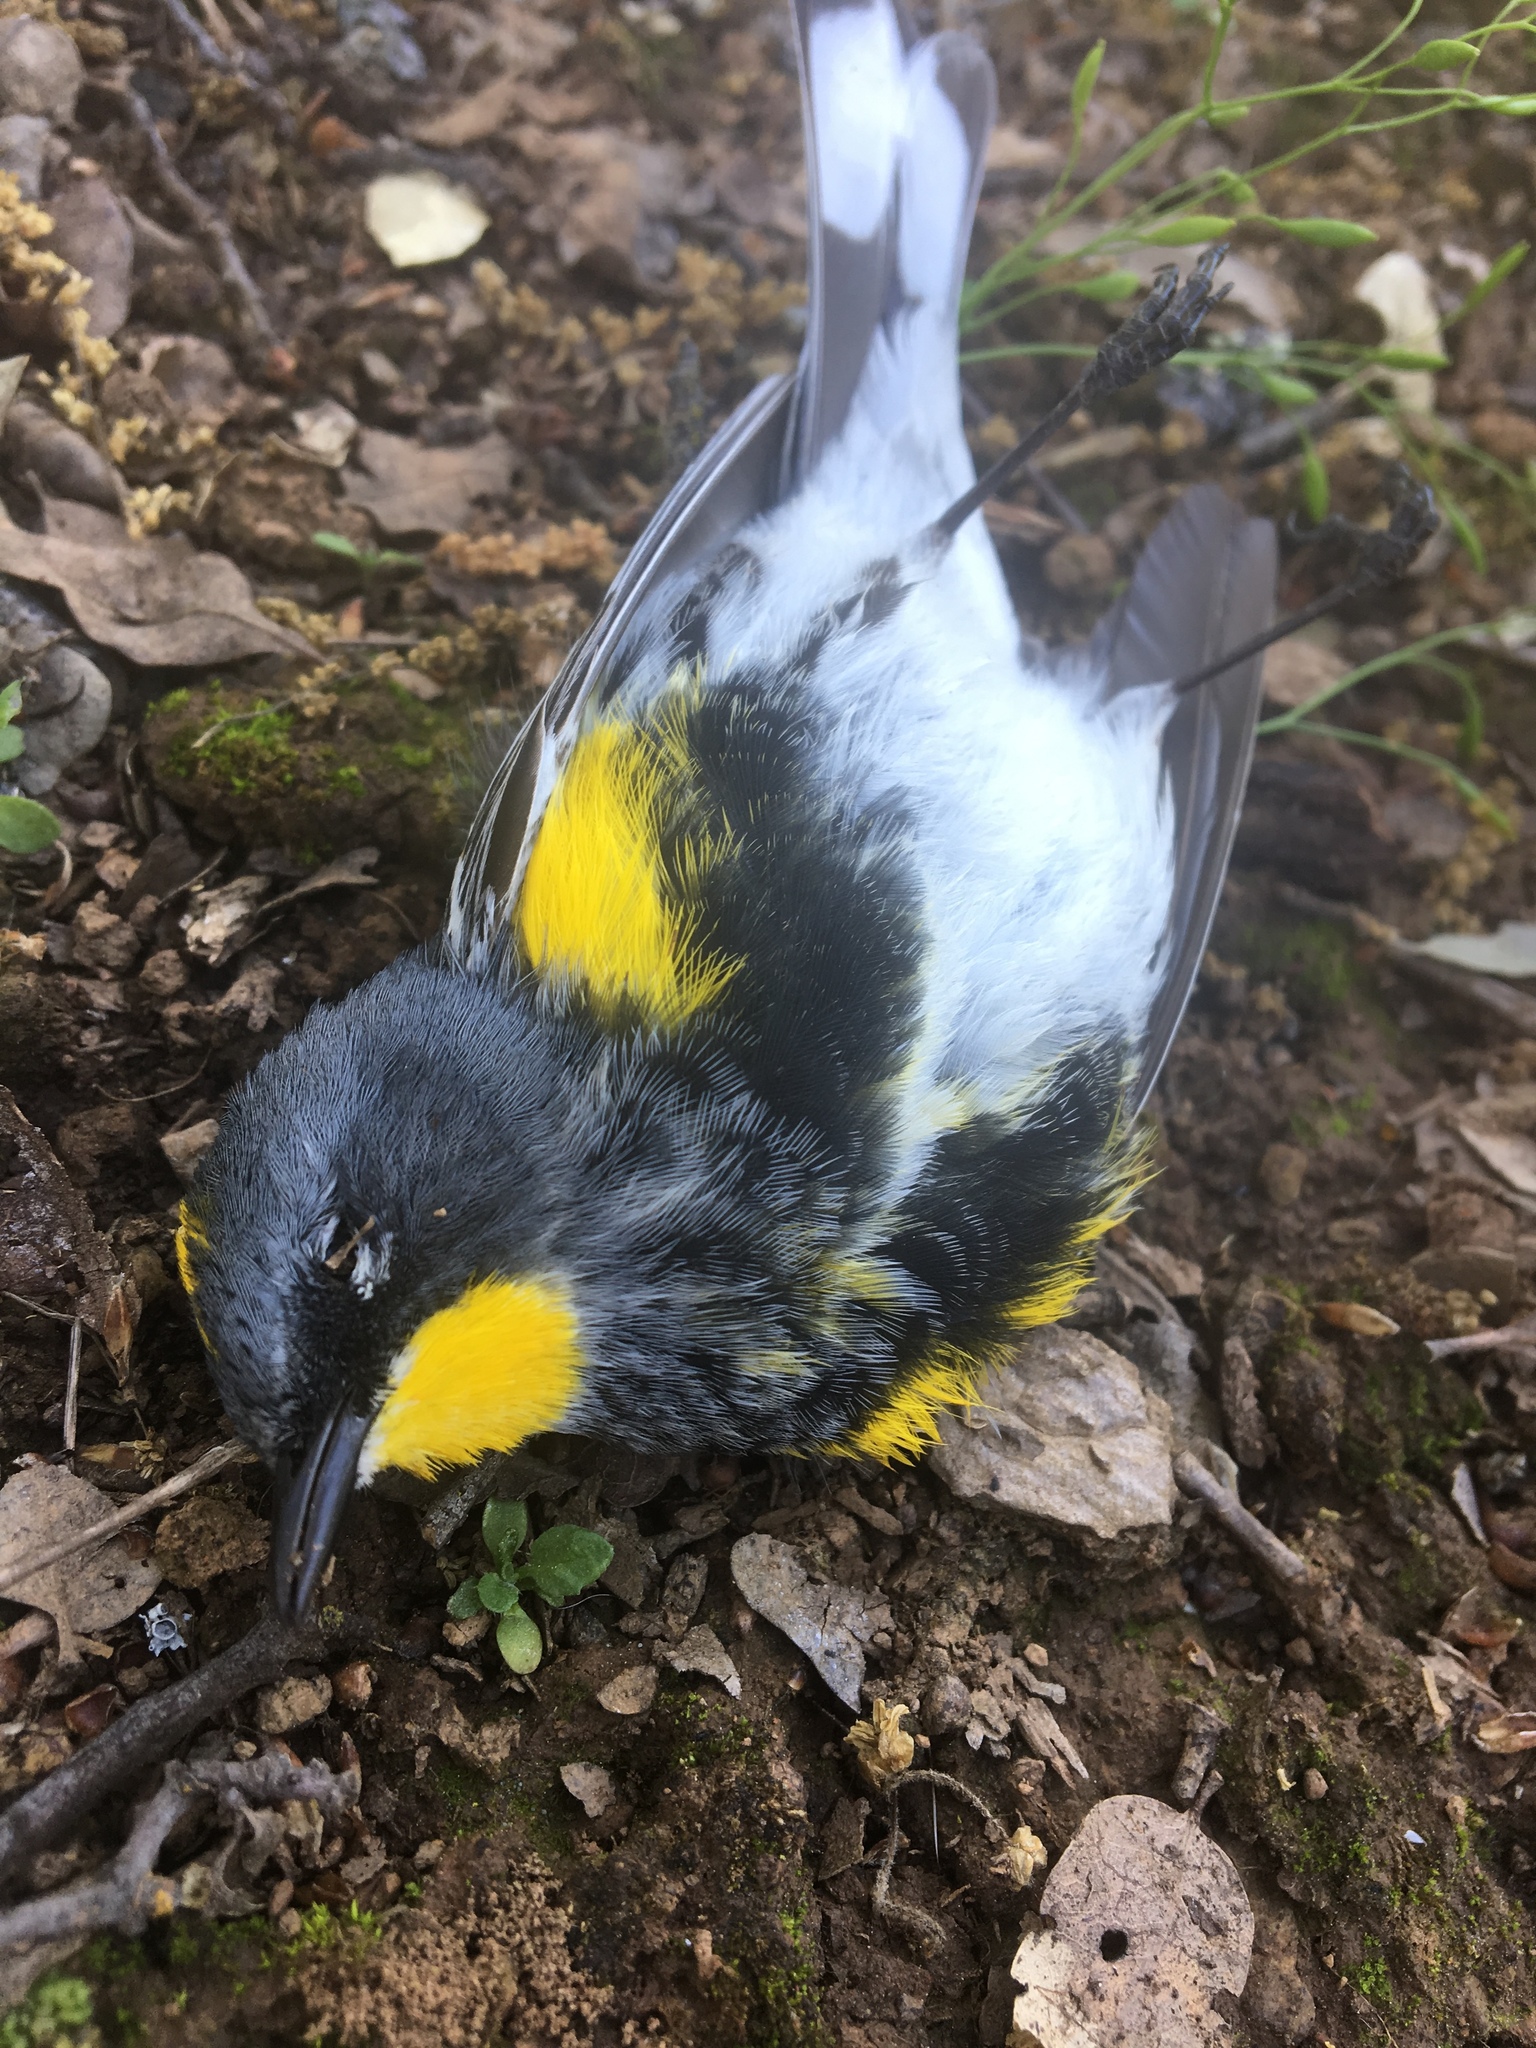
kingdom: Animalia
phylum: Chordata
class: Aves
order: Passeriformes
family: Parulidae
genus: Setophaga
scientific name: Setophaga auduboni
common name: Audubon's warbler
